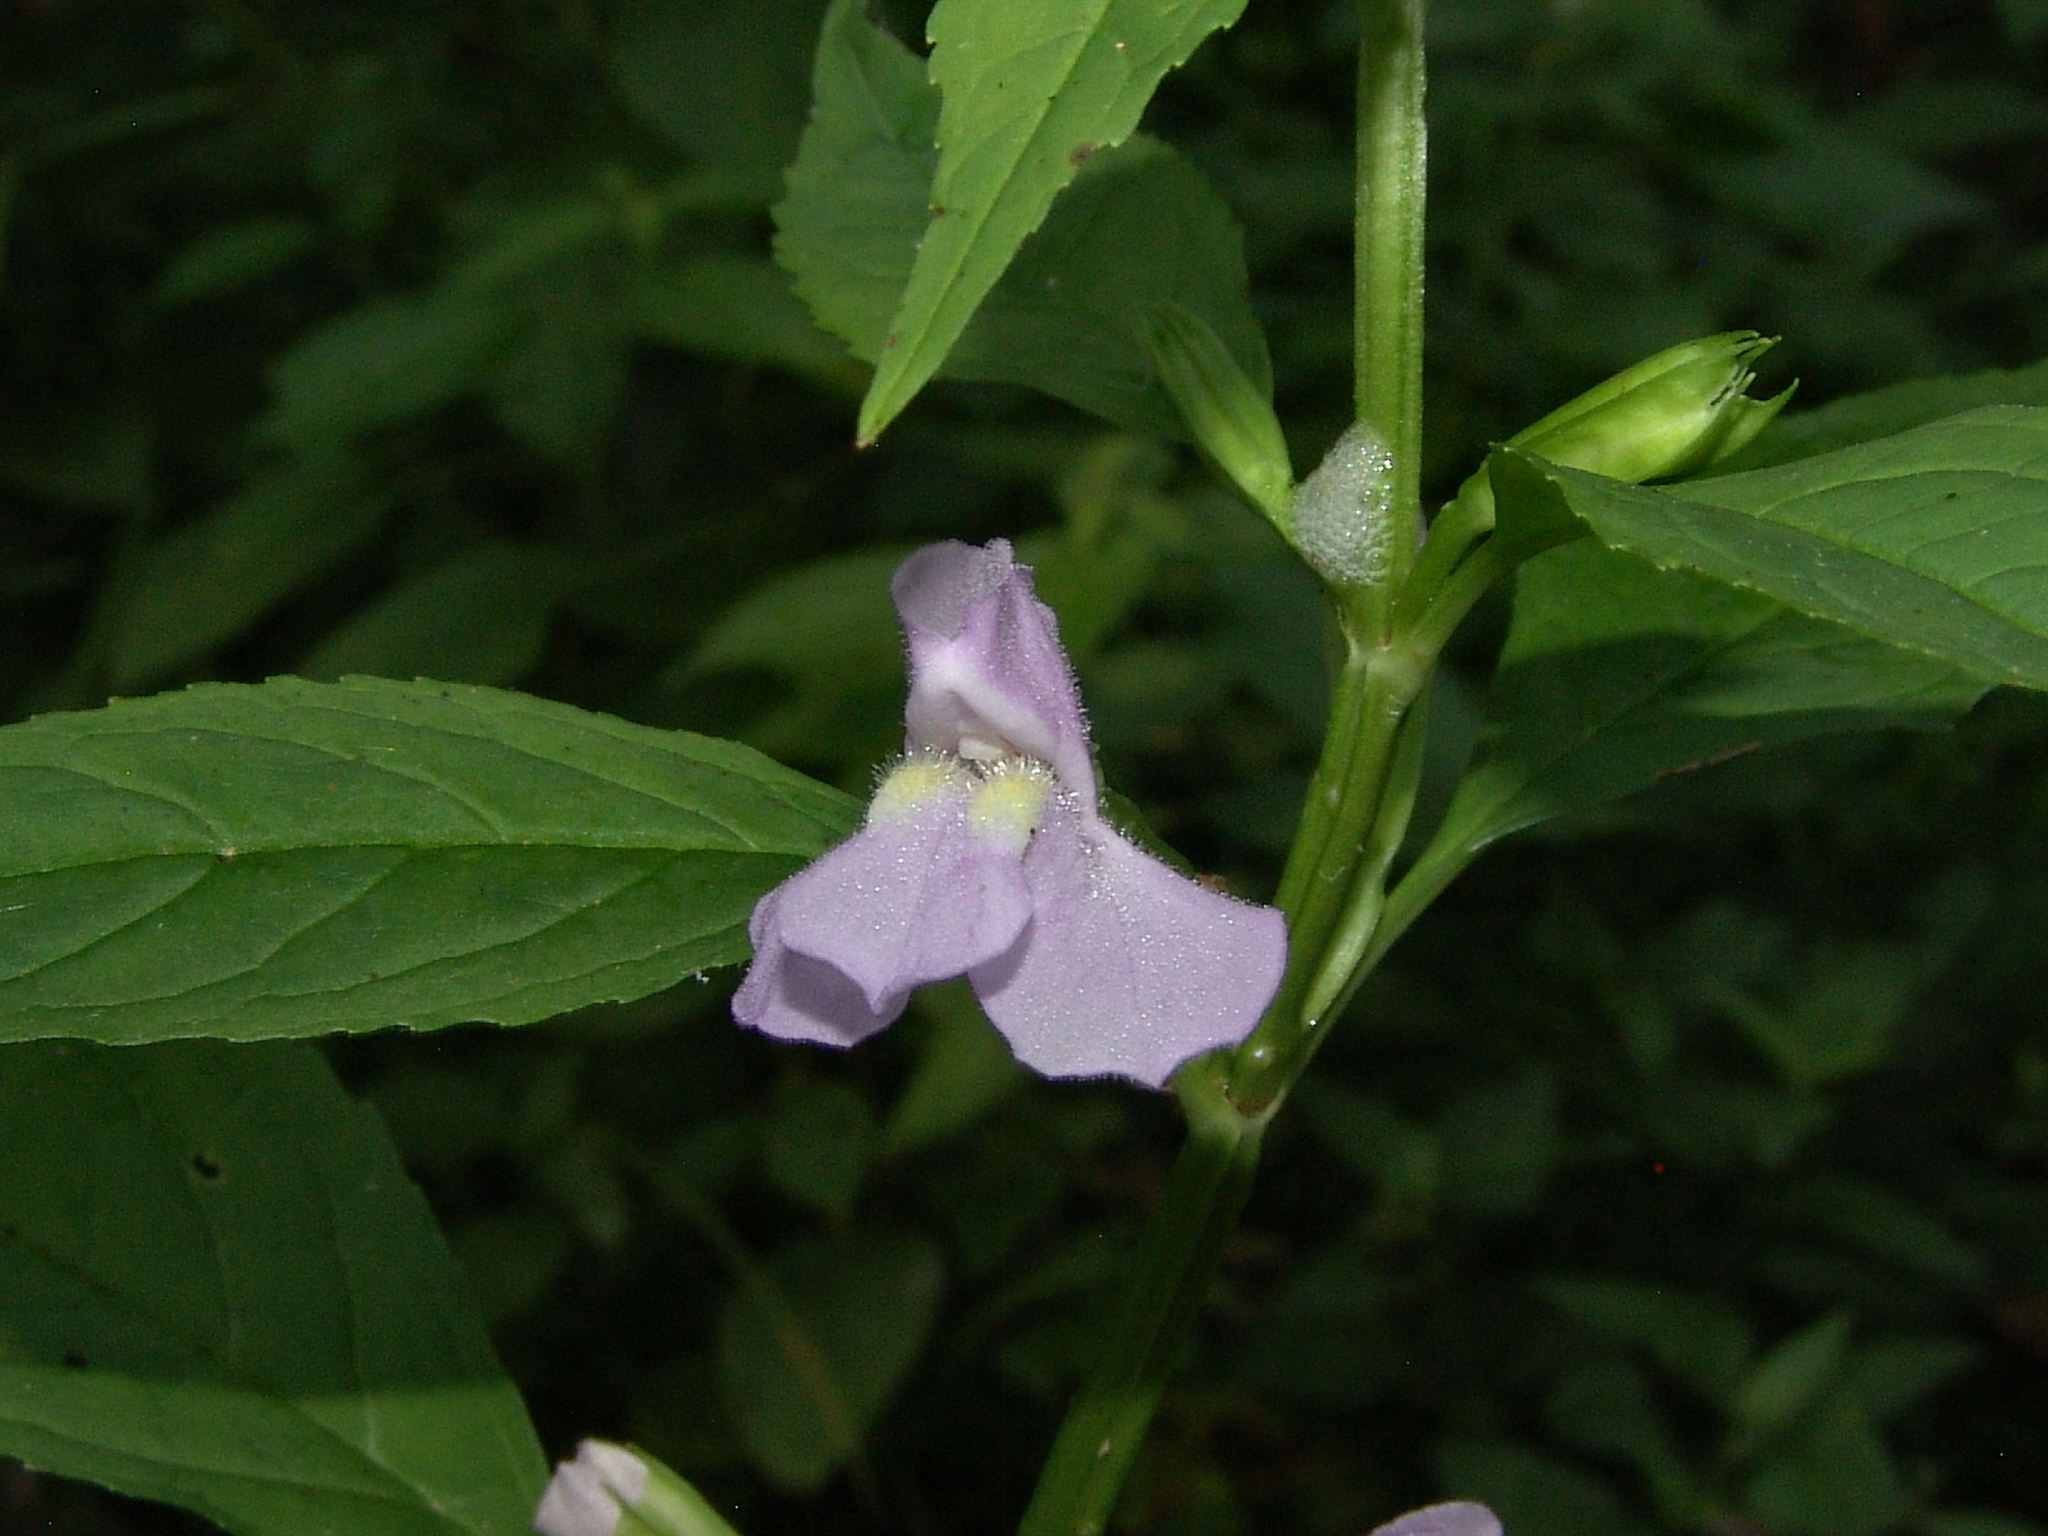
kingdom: Plantae
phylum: Tracheophyta
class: Magnoliopsida
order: Lamiales
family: Phrymaceae
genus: Mimulus
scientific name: Mimulus alatus
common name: Sharp-wing monkey-flower
